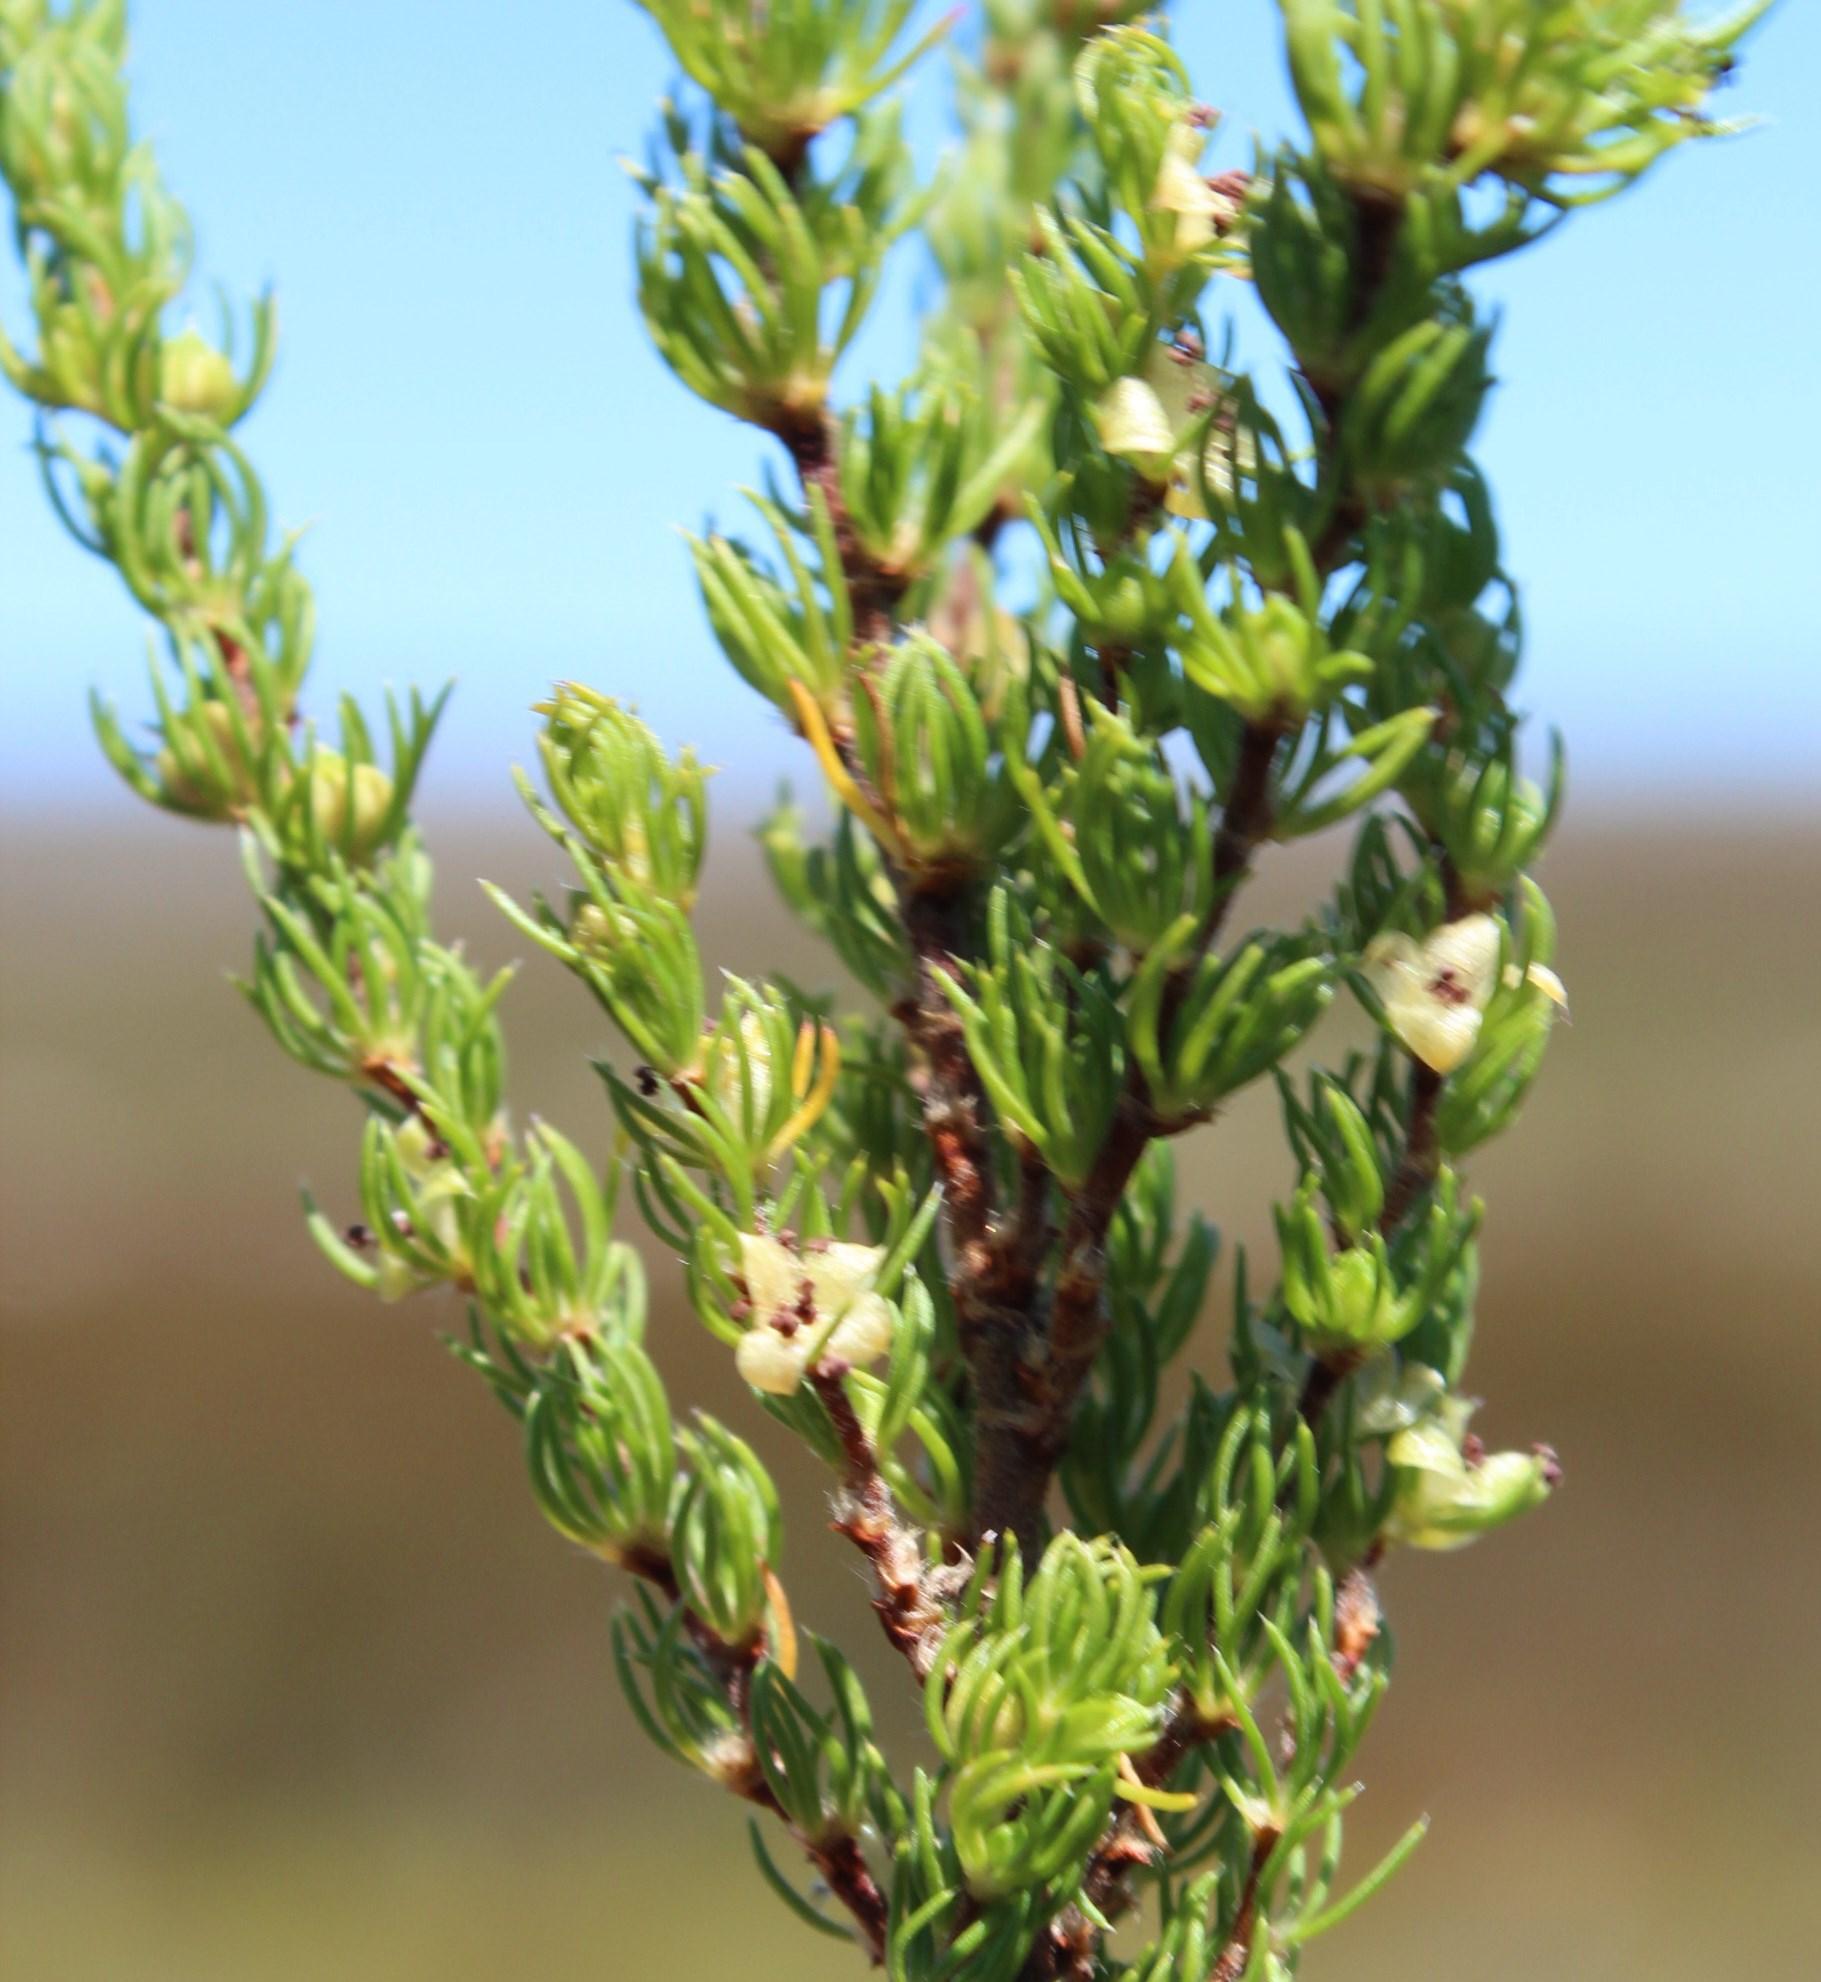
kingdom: Plantae
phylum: Tracheophyta
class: Magnoliopsida
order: Rosales
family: Rosaceae
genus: Cliffortia
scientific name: Cliffortia subsetacea
